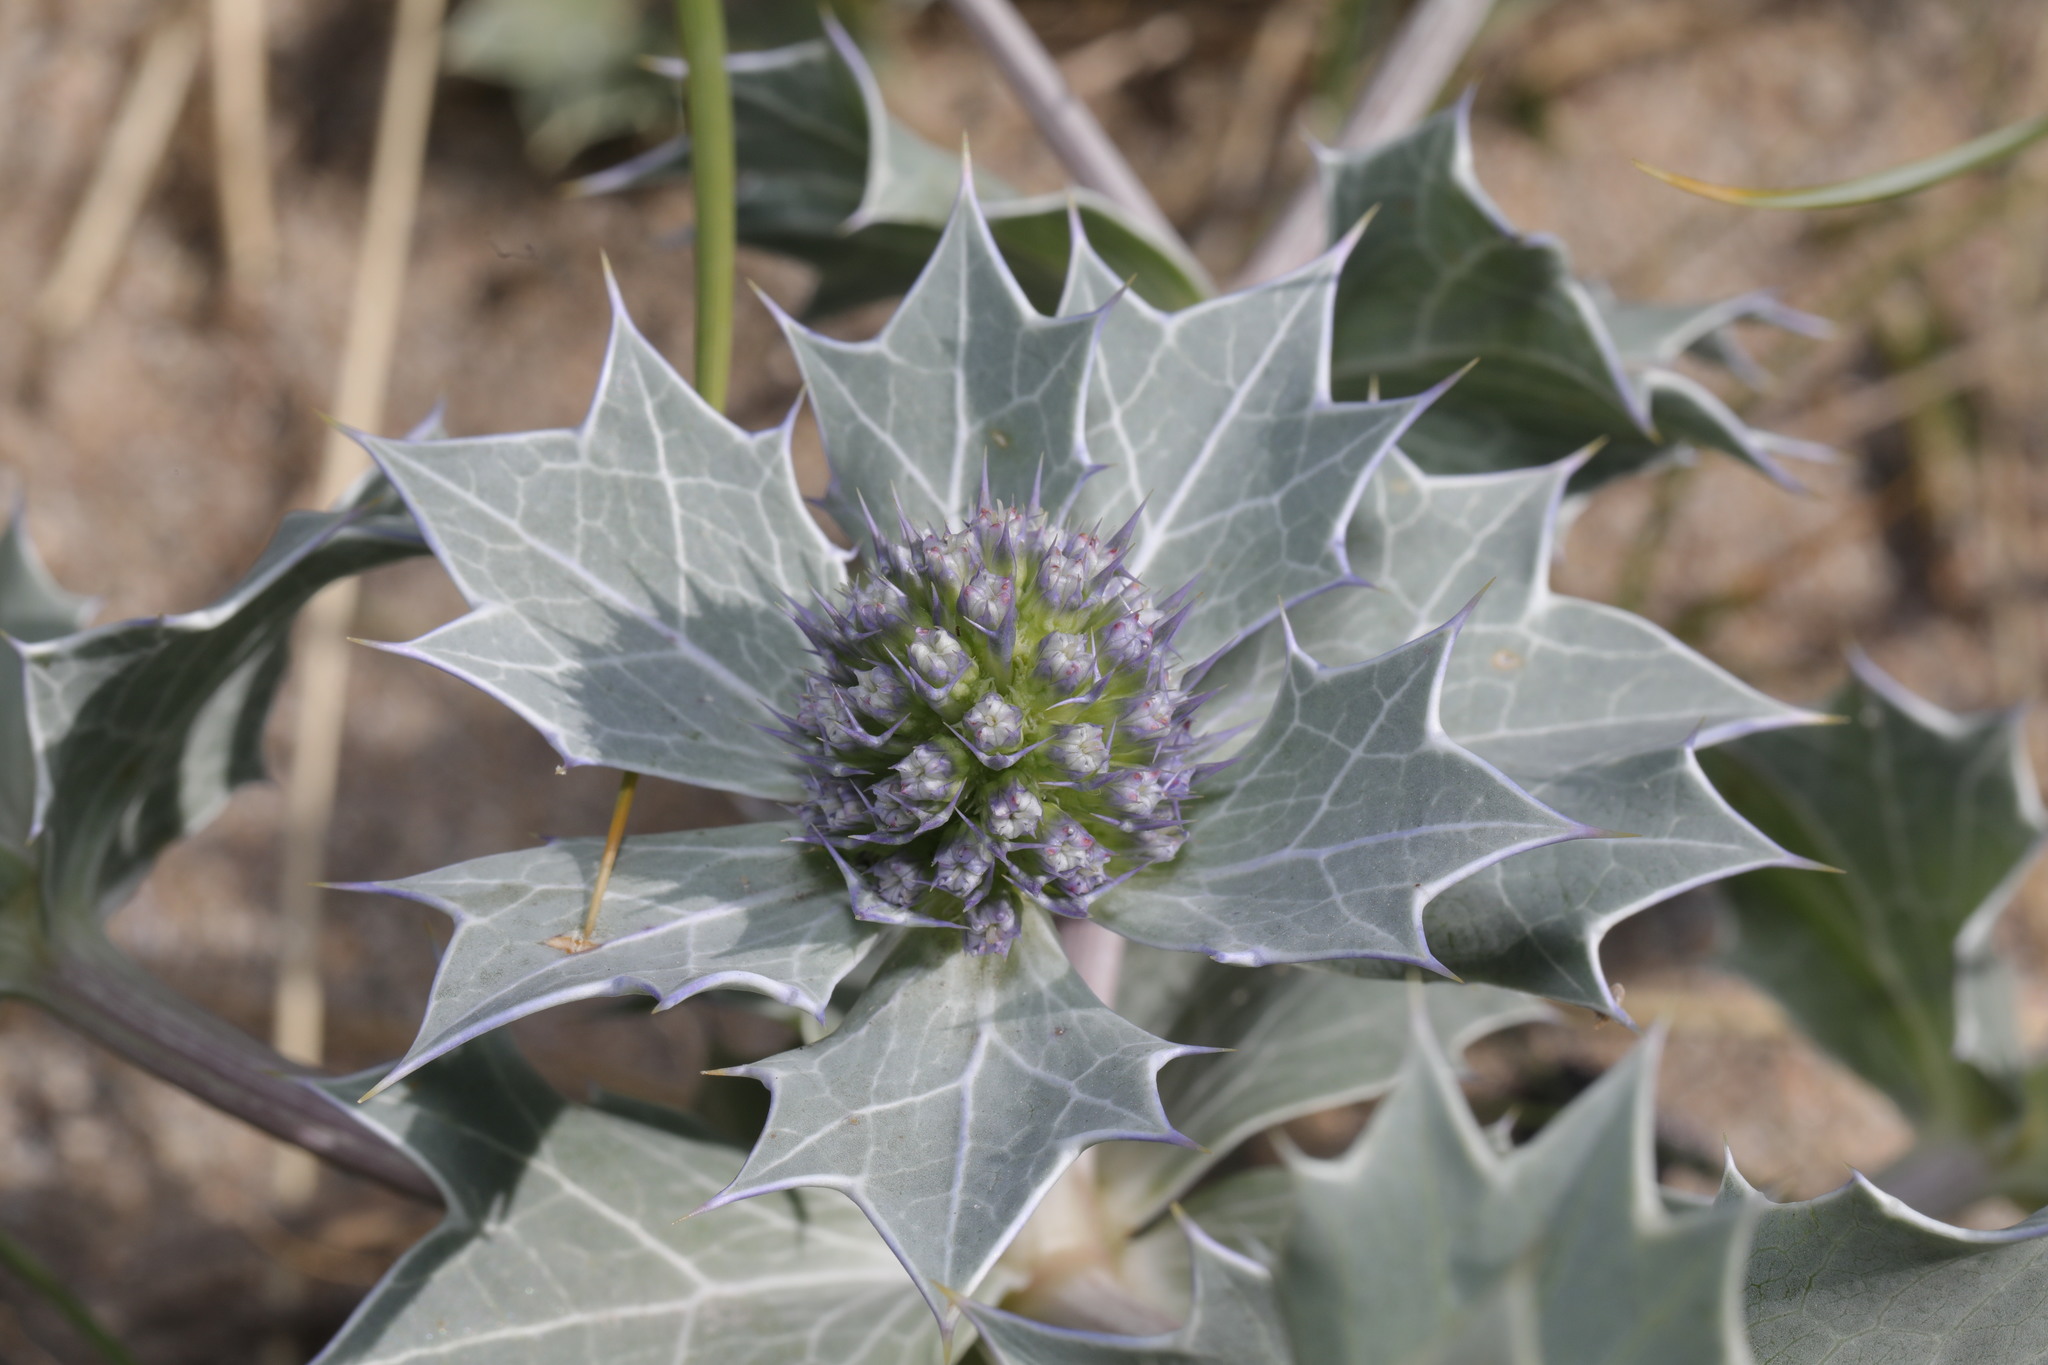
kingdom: Plantae
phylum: Tracheophyta
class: Magnoliopsida
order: Apiales
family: Apiaceae
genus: Eryngium
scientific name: Eryngium maritimum
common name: Sea-holly
